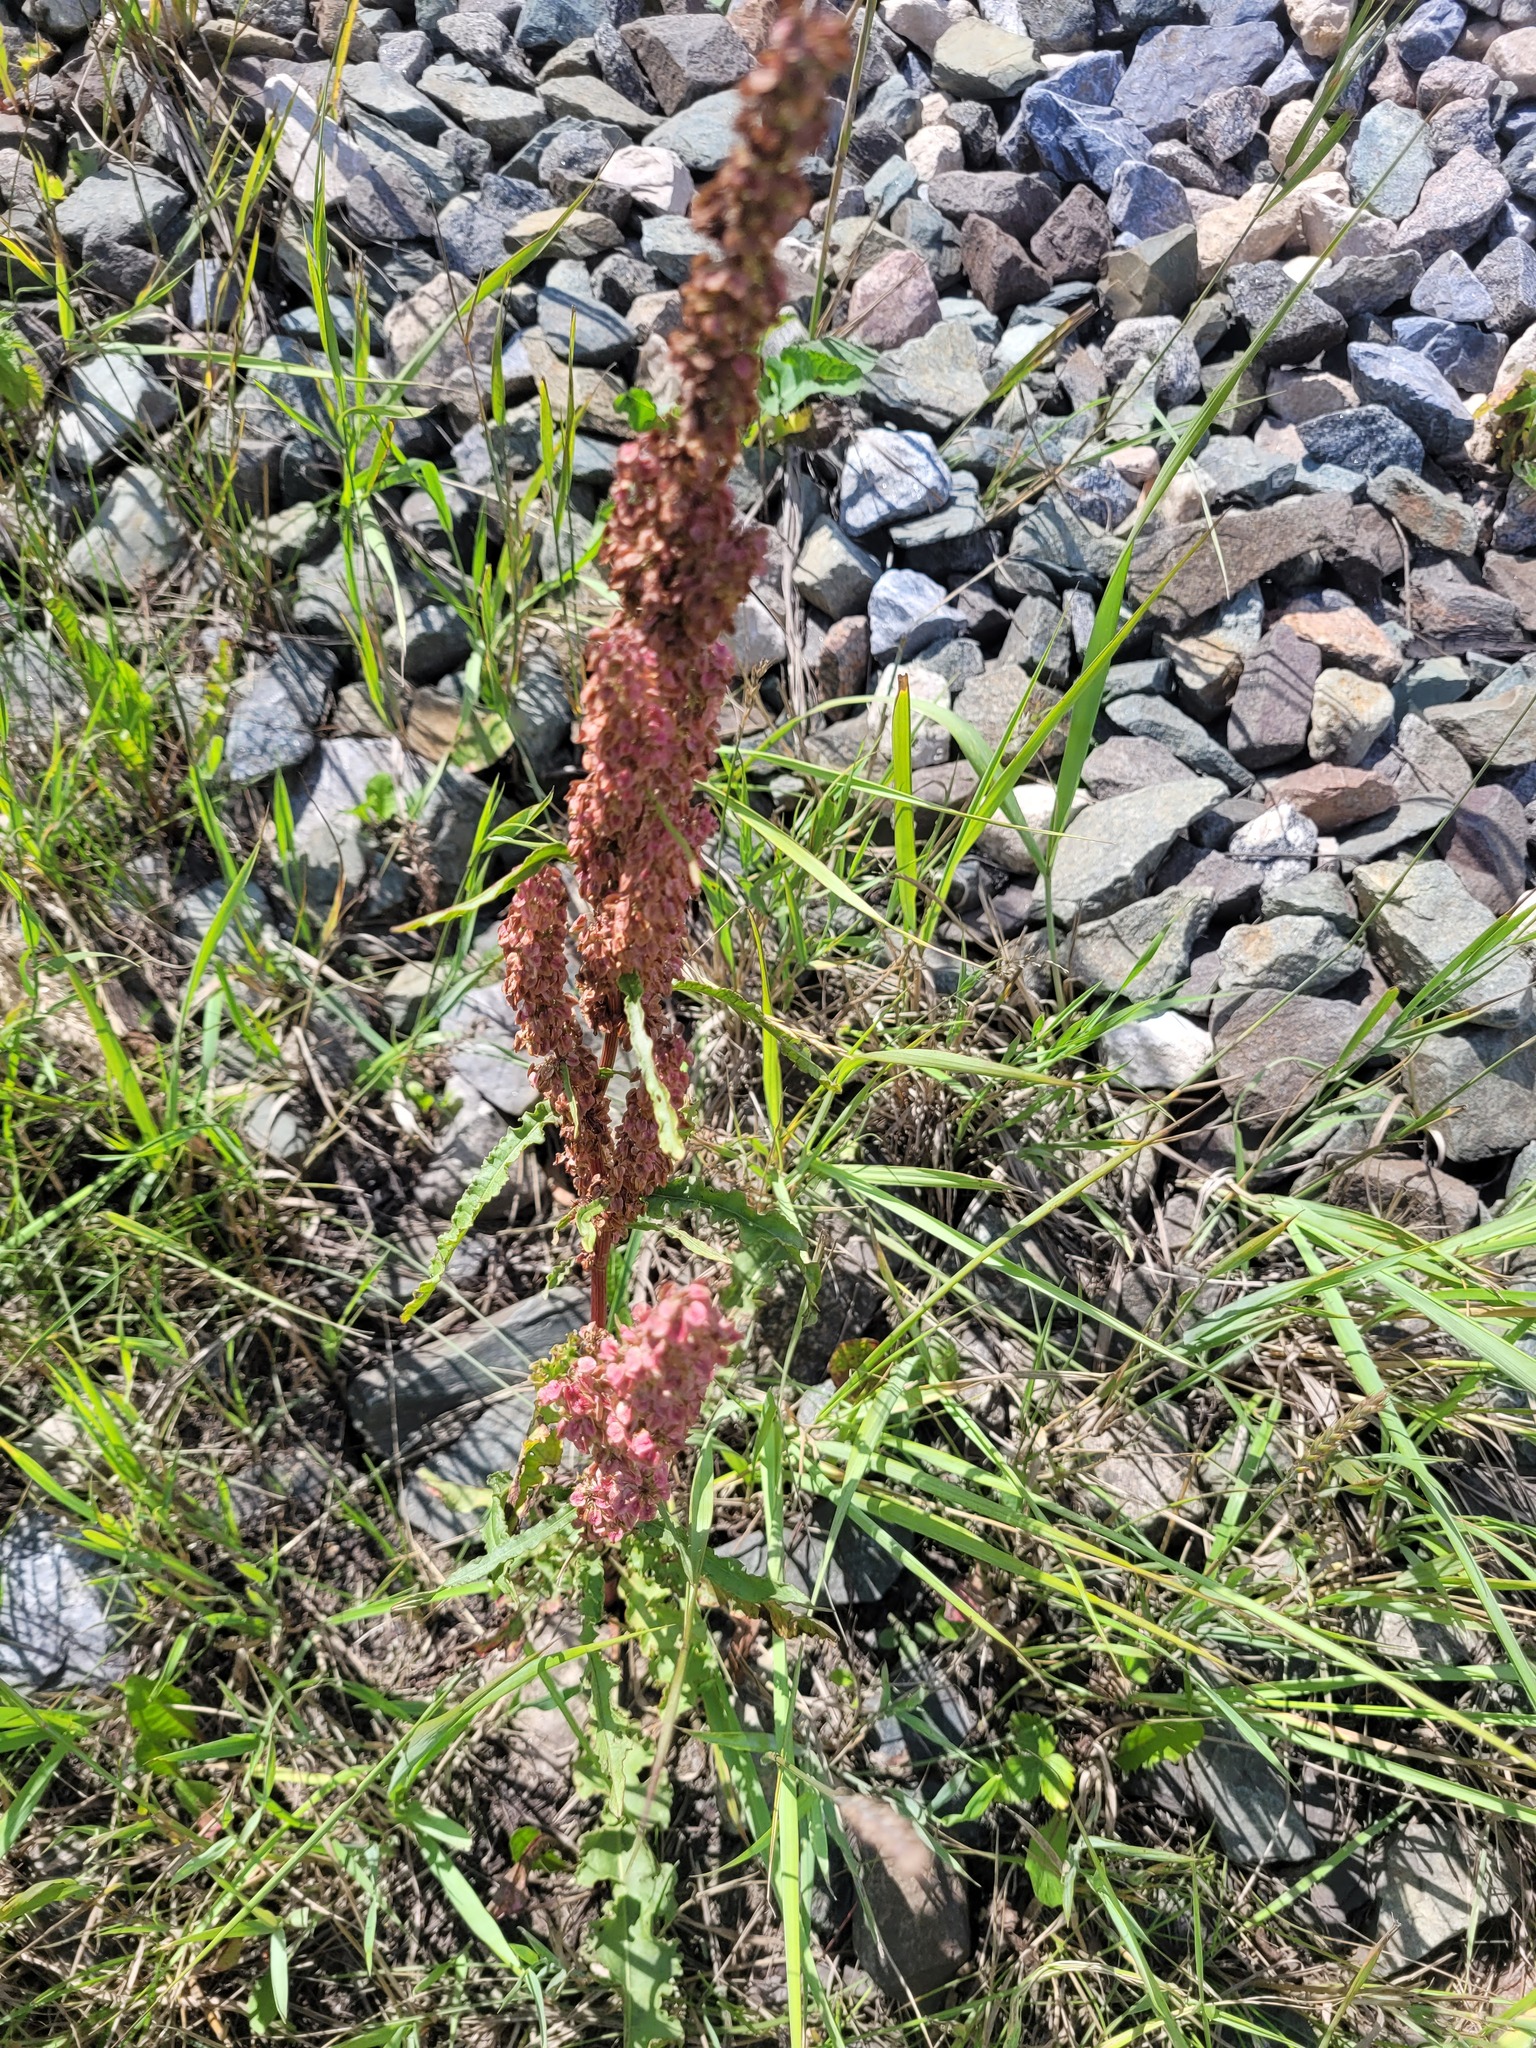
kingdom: Plantae
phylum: Tracheophyta
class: Magnoliopsida
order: Caryophyllales
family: Polygonaceae
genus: Rumex
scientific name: Rumex longifolius
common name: Dooryard dock
